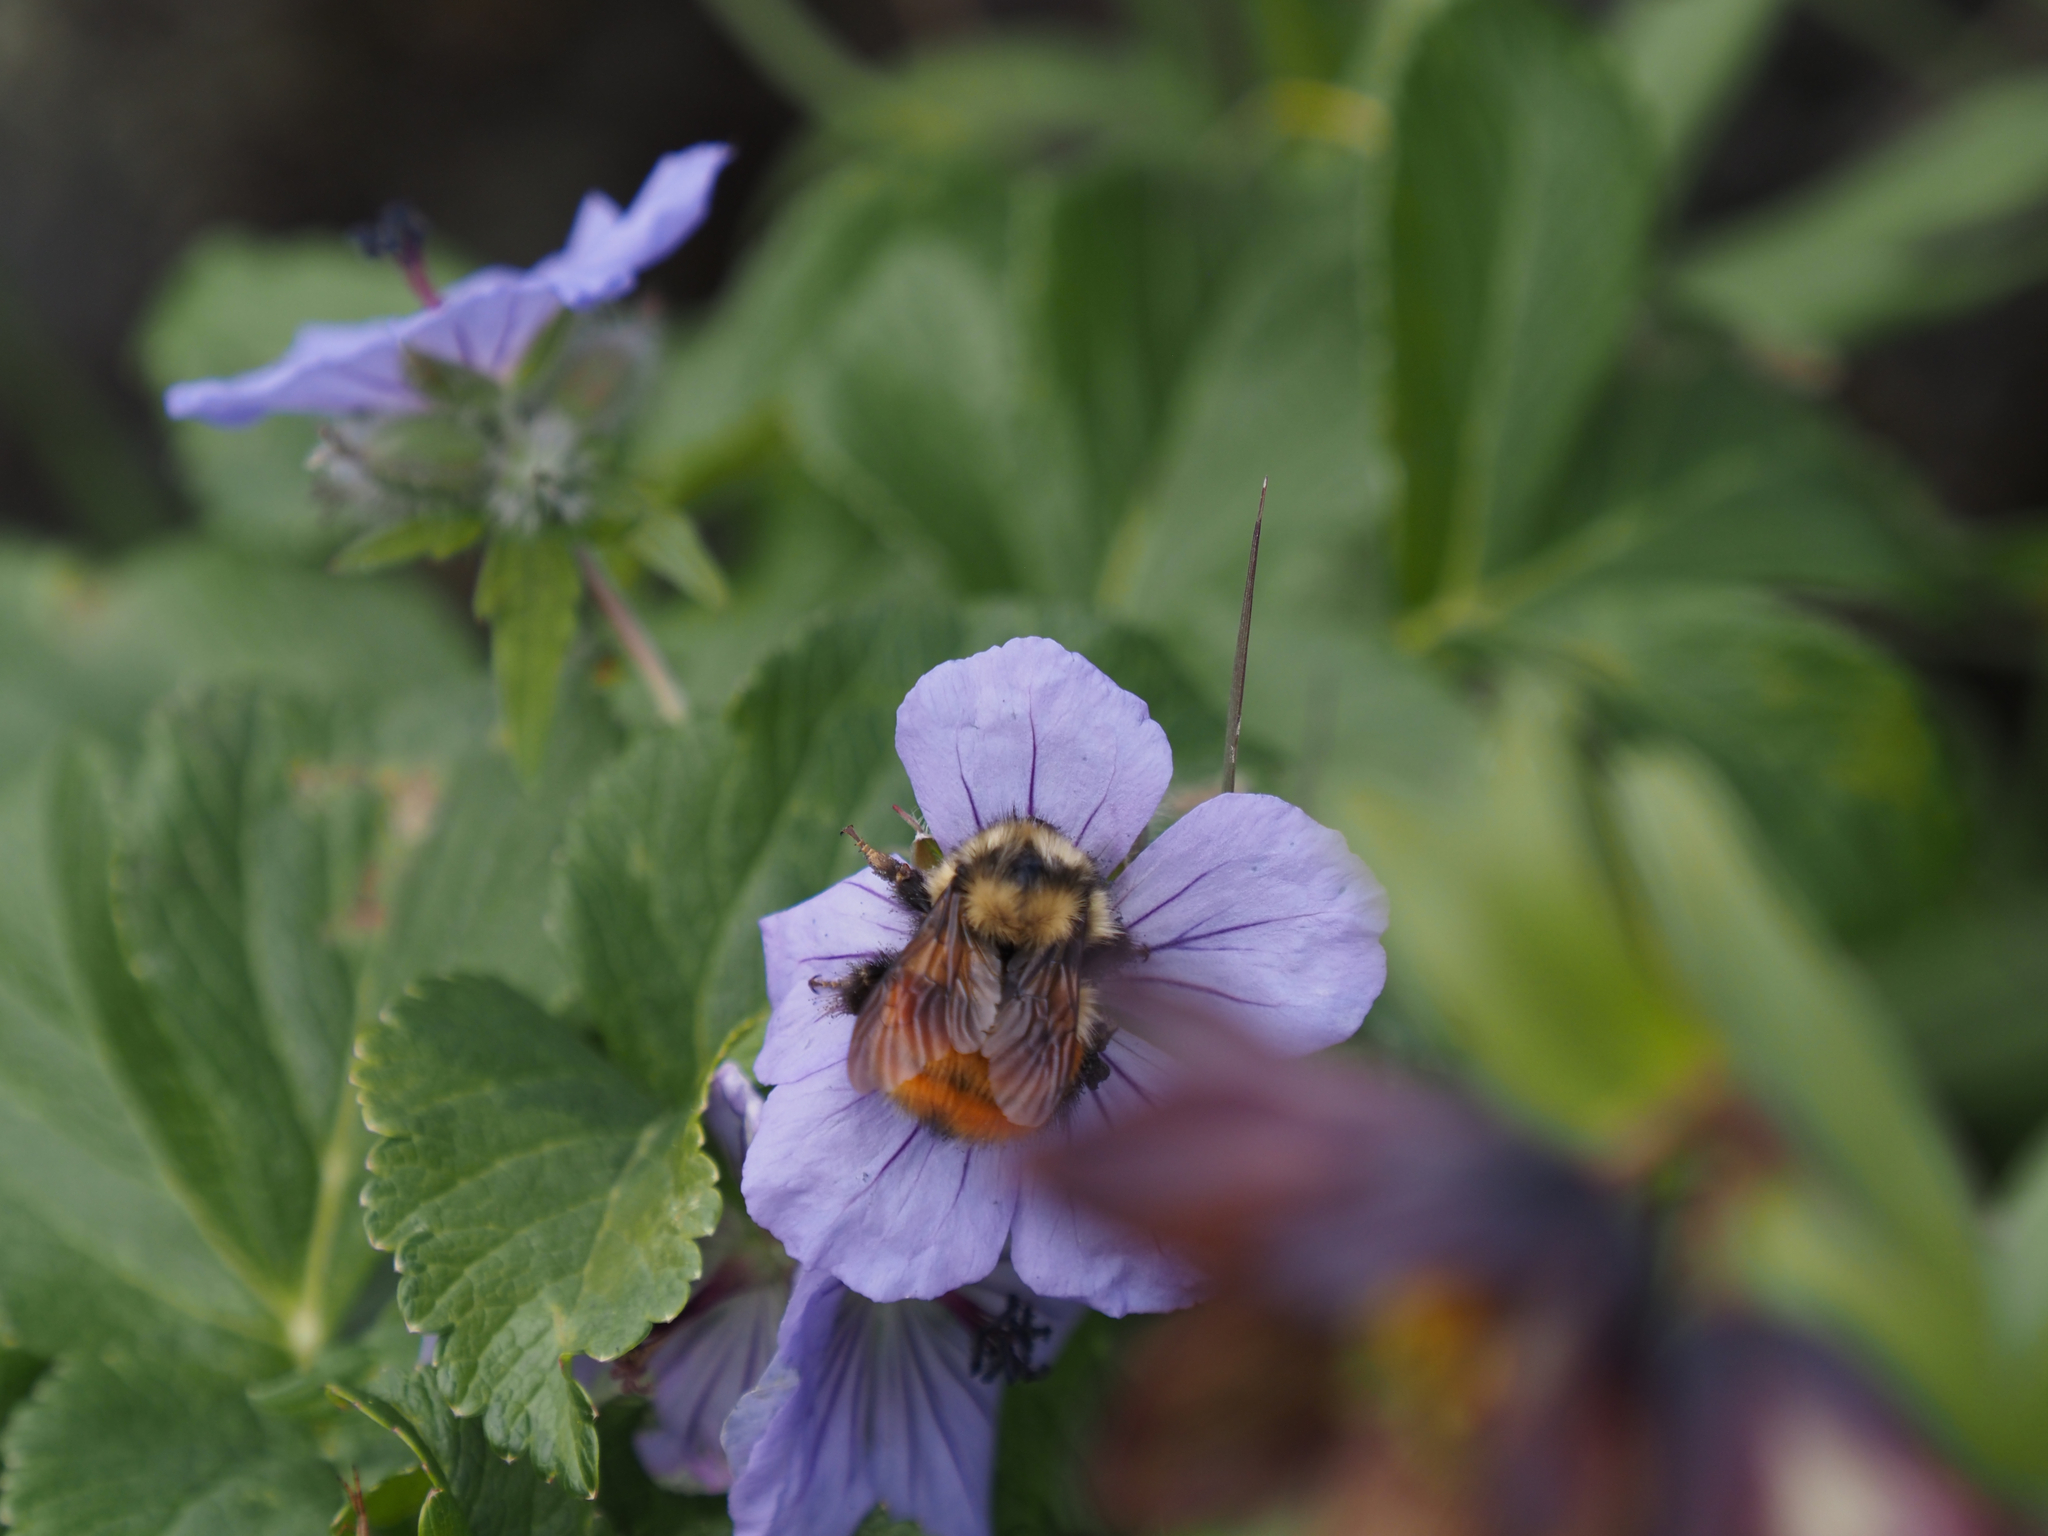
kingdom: Animalia
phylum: Arthropoda
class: Insecta
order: Hymenoptera
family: Apidae
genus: Bombus
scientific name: Bombus melanopygus
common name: Black tail bumble bee
